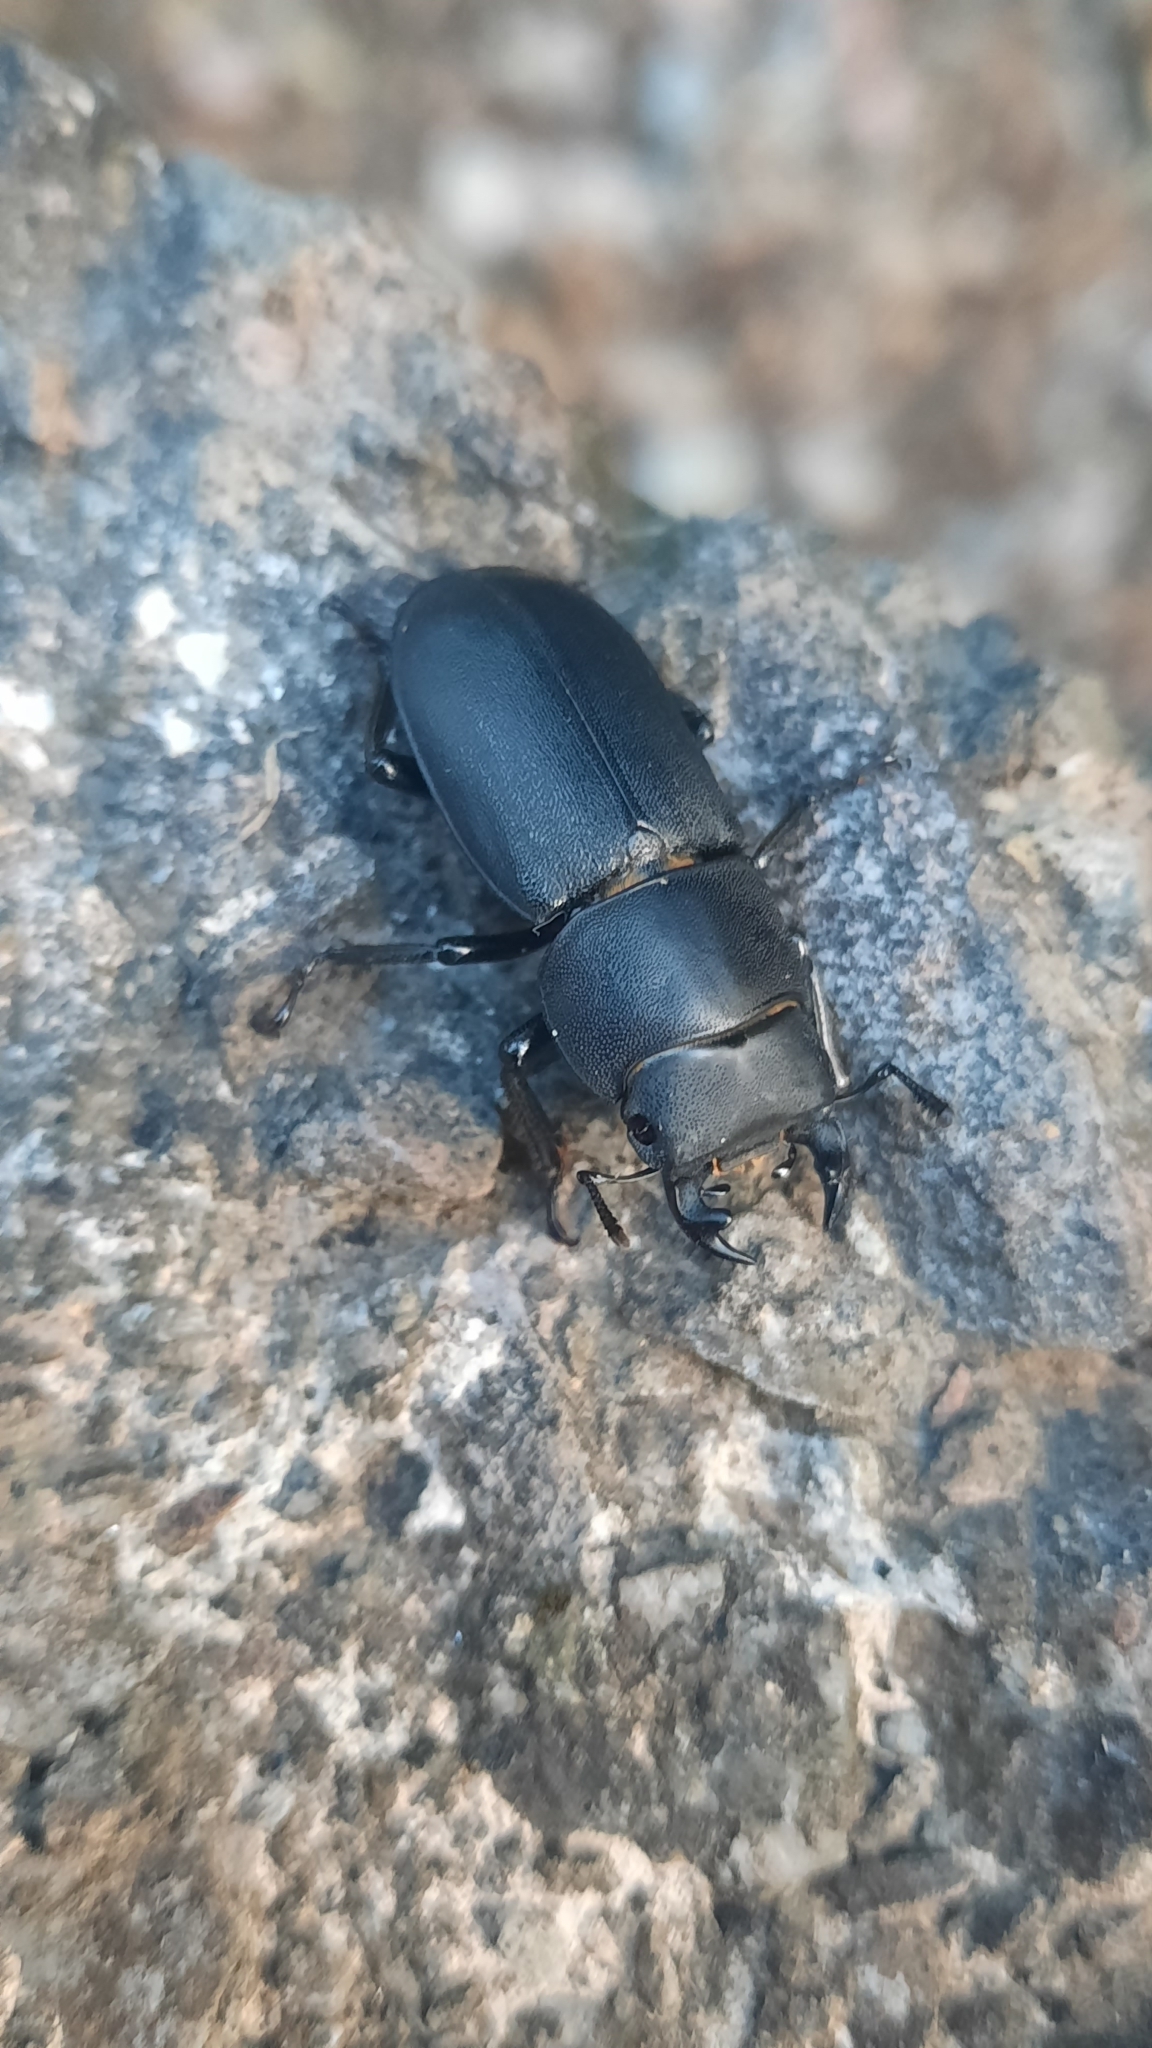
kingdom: Animalia
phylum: Arthropoda
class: Insecta
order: Coleoptera
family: Lucanidae
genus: Dorcus
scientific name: Dorcus parallelipipedus
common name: Lesser stag beetle
